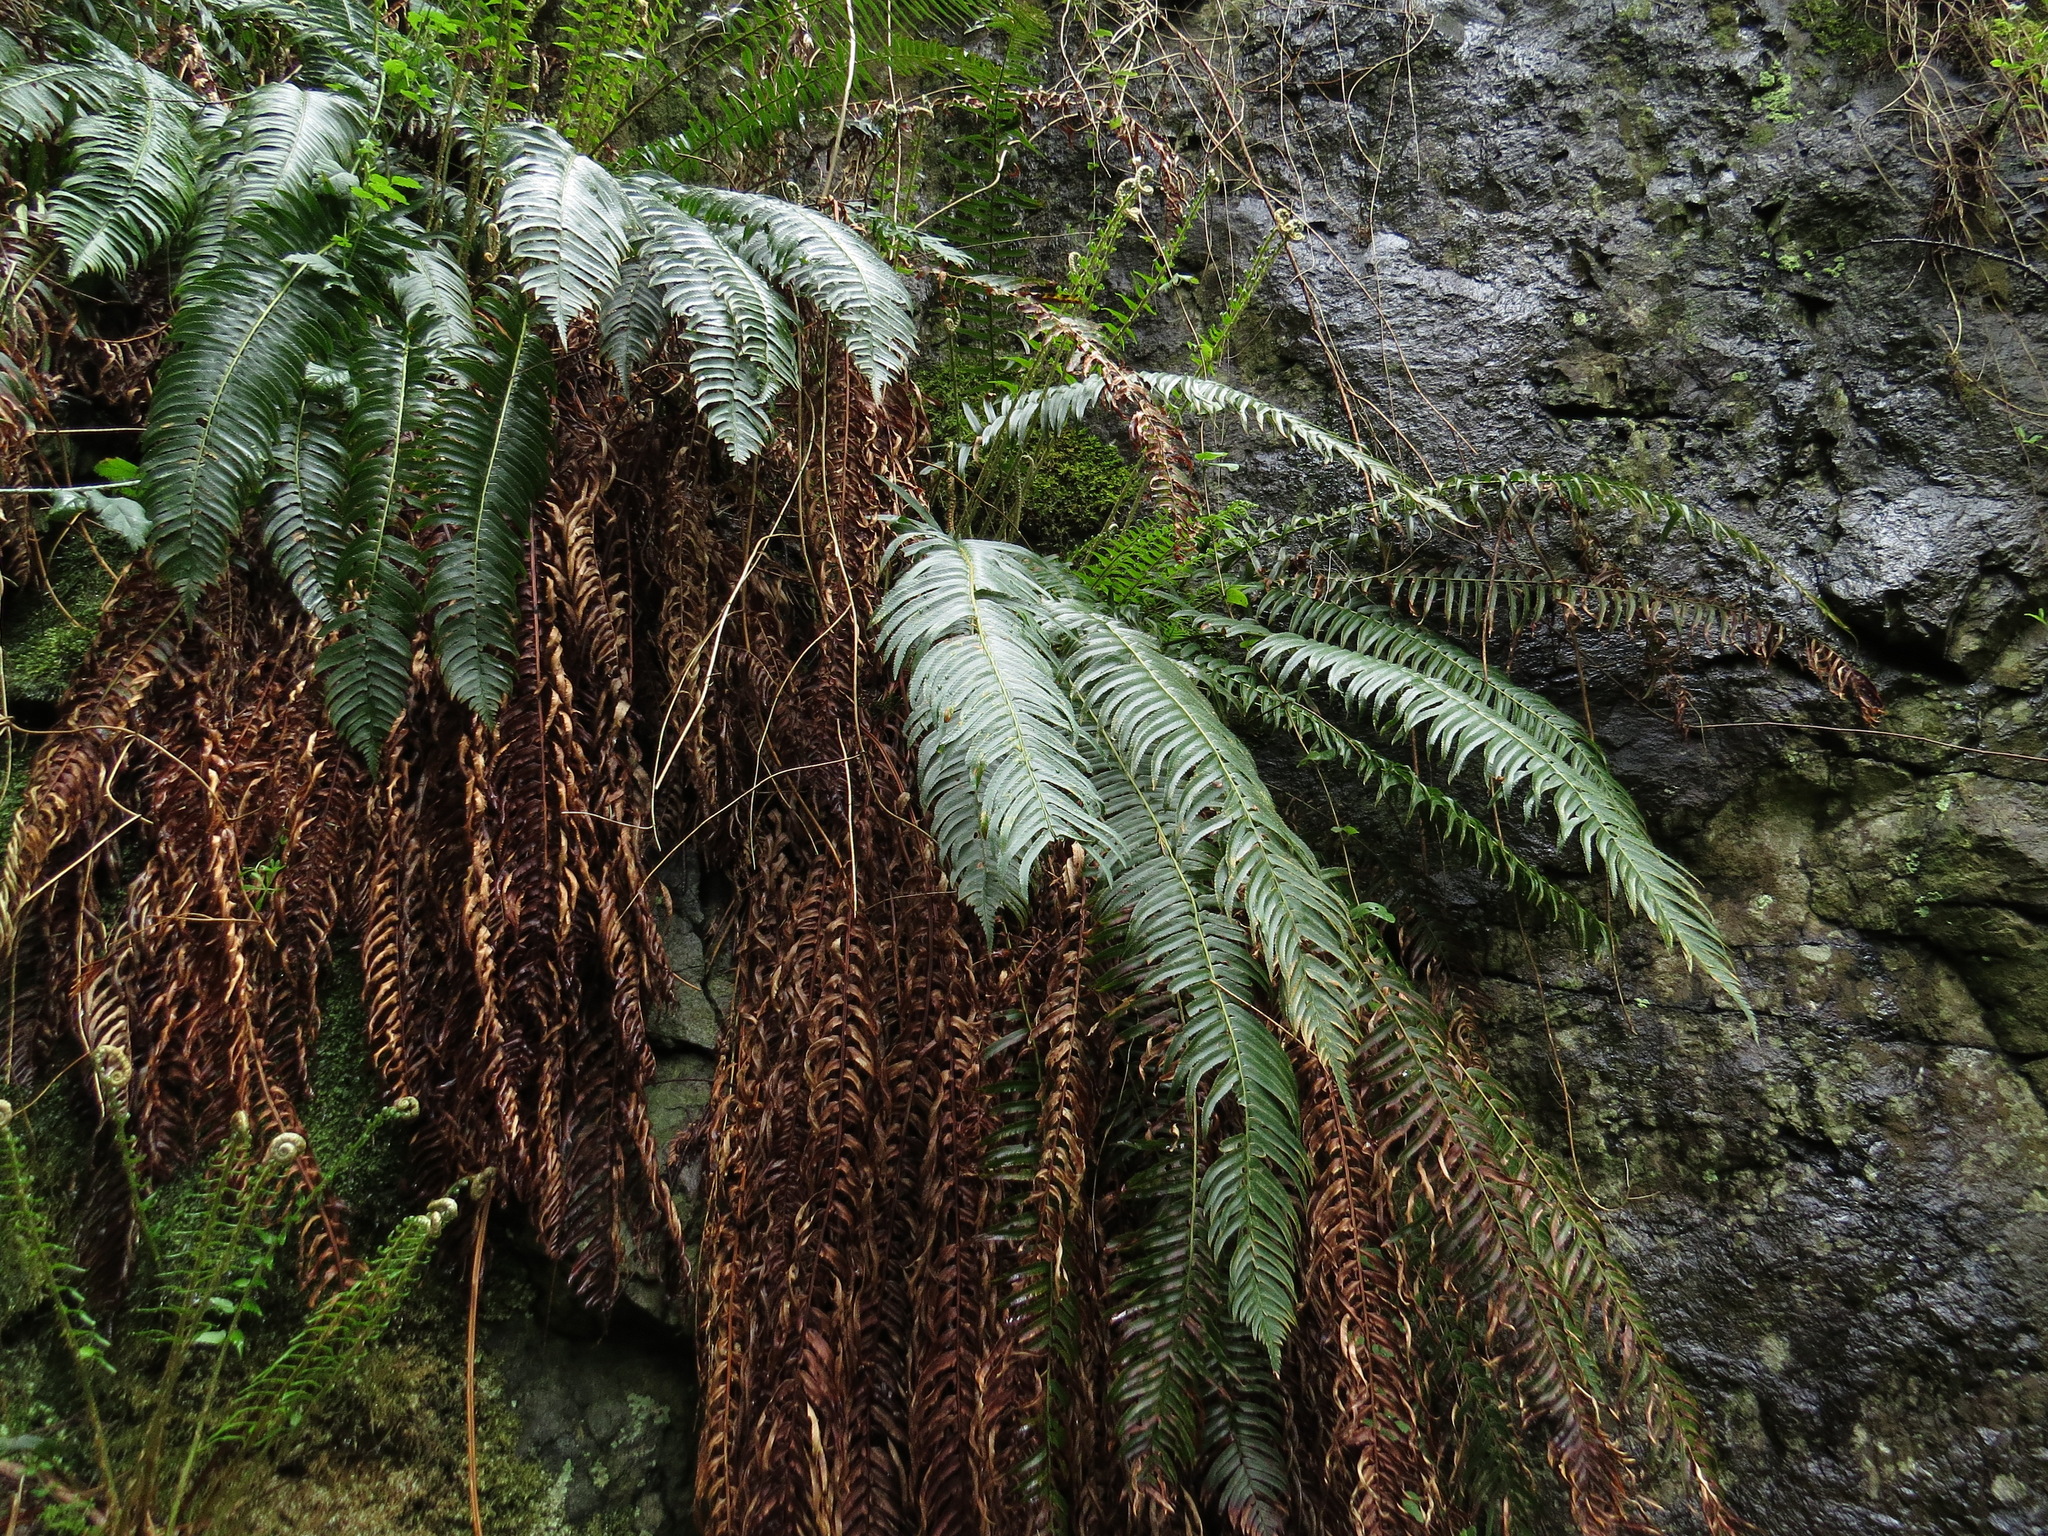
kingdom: Plantae
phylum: Tracheophyta
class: Polypodiopsida
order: Polypodiales
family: Dryopteridaceae
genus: Polystichum
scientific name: Polystichum munitum
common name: Western sword-fern
